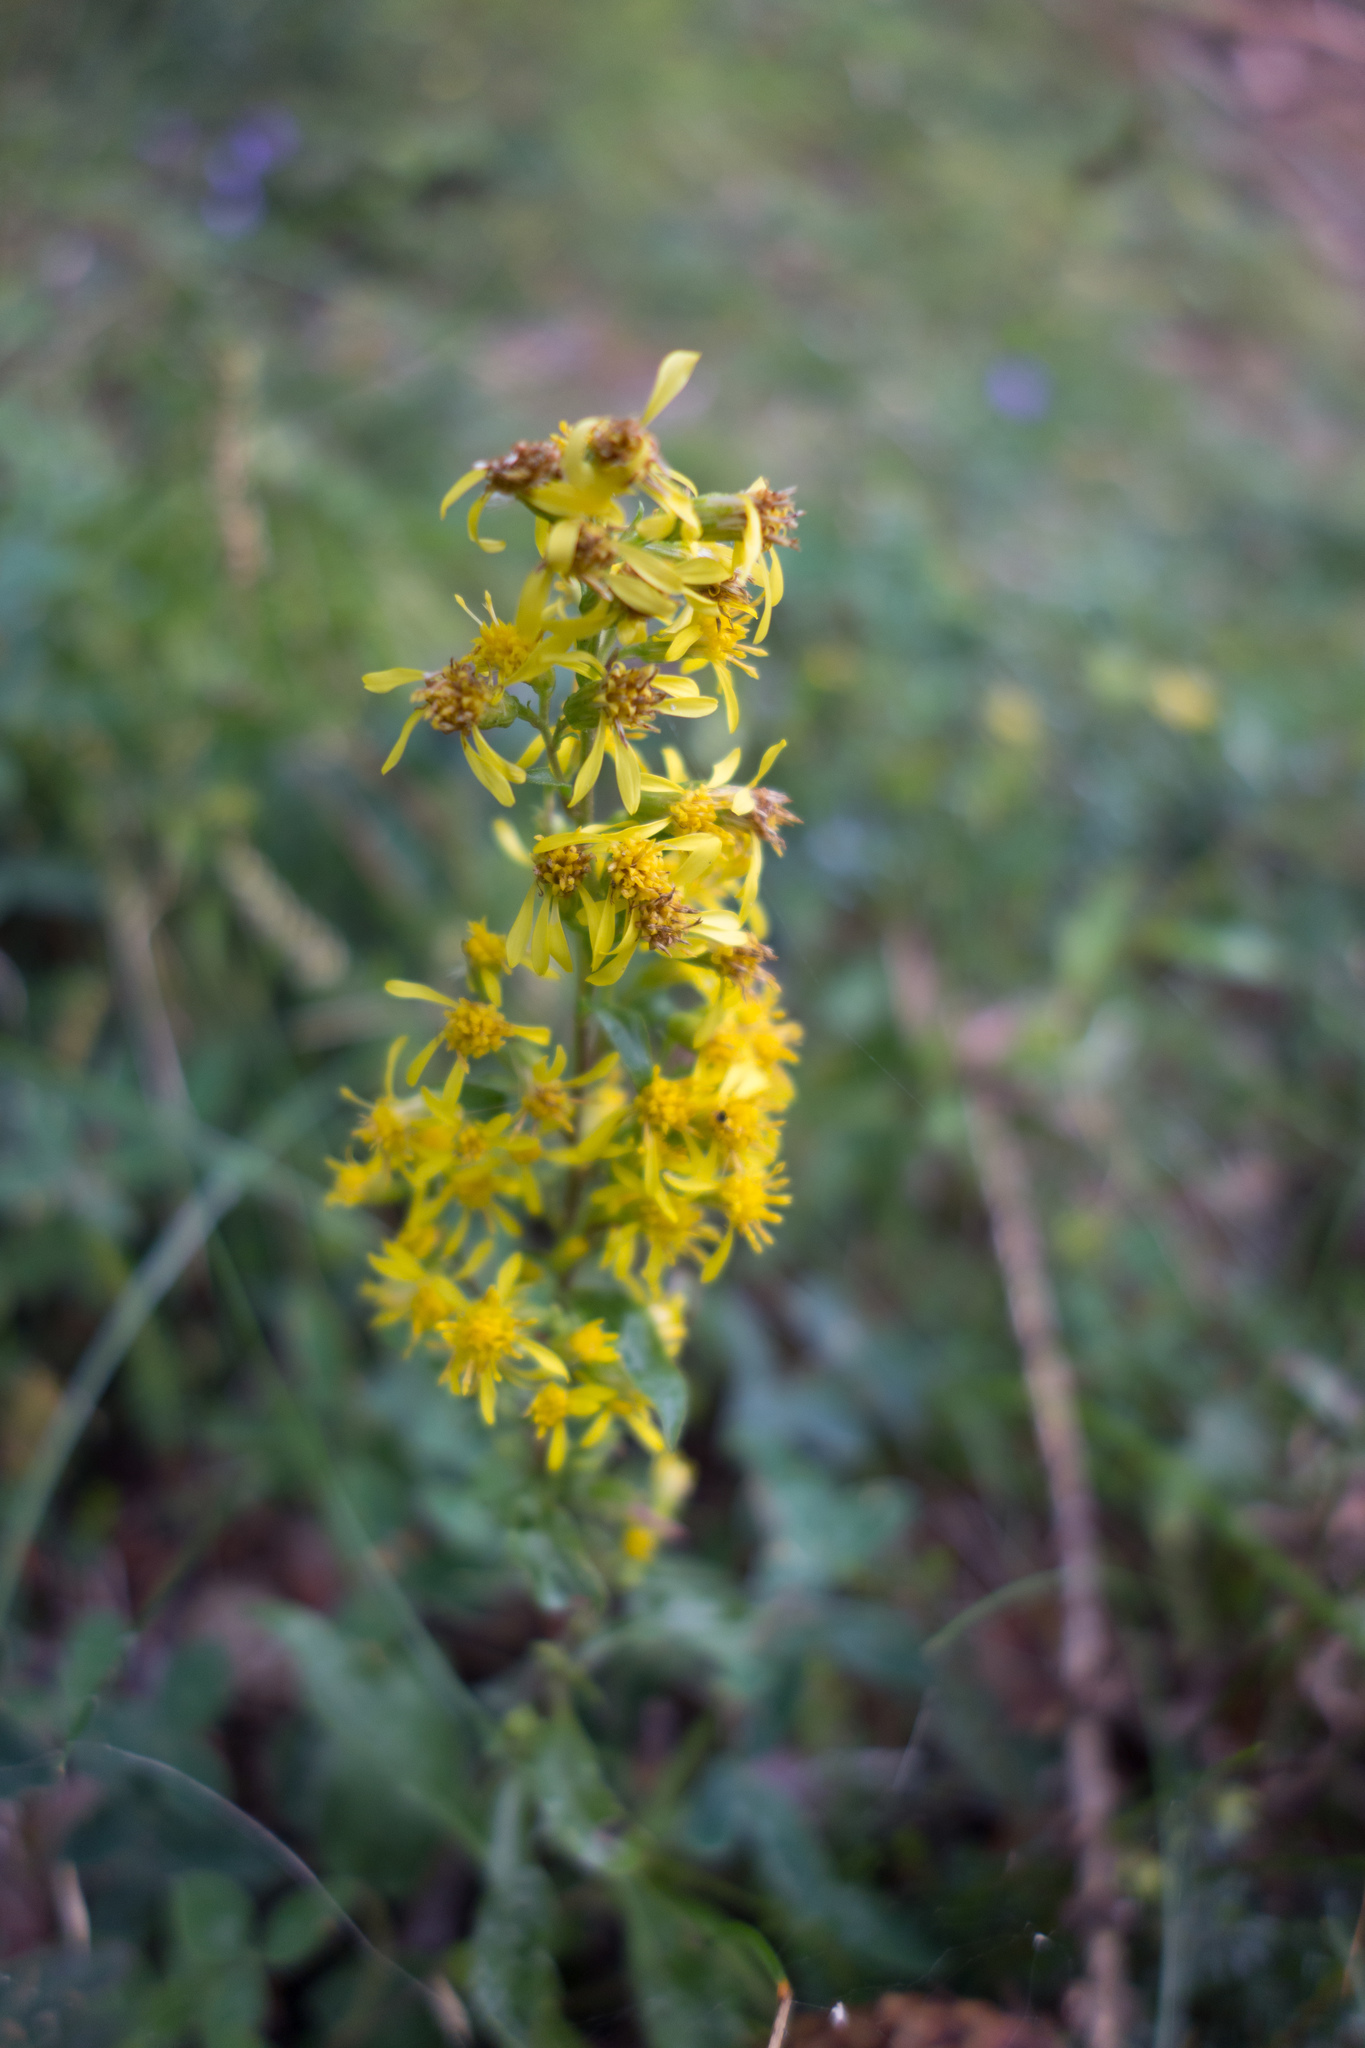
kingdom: Plantae
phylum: Tracheophyta
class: Magnoliopsida
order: Asterales
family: Asteraceae
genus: Solidago
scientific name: Solidago virgaurea
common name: Goldenrod
